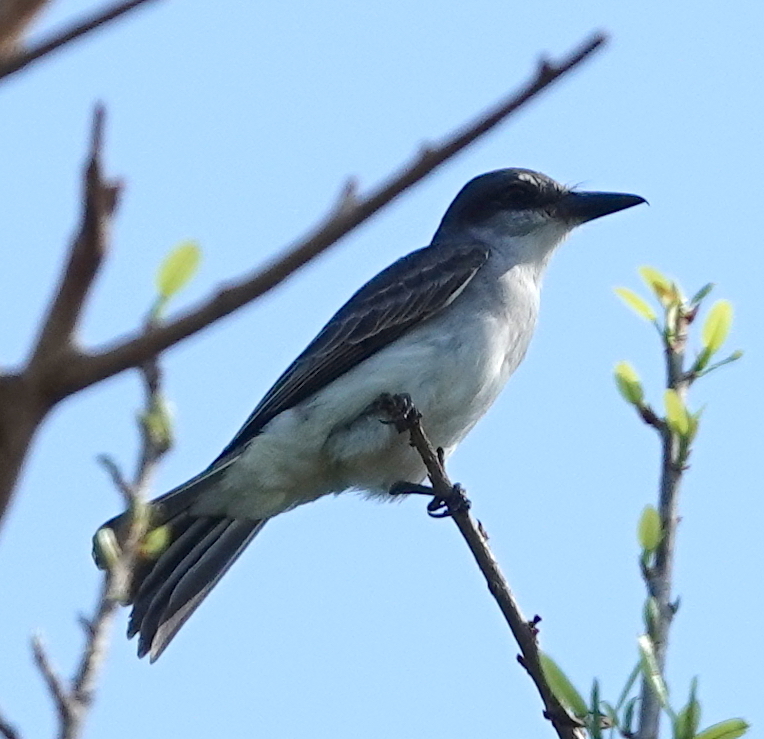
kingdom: Animalia
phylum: Chordata
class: Aves
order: Passeriformes
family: Tyrannidae
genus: Tyrannus
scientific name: Tyrannus dominicensis
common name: Gray kingbird
